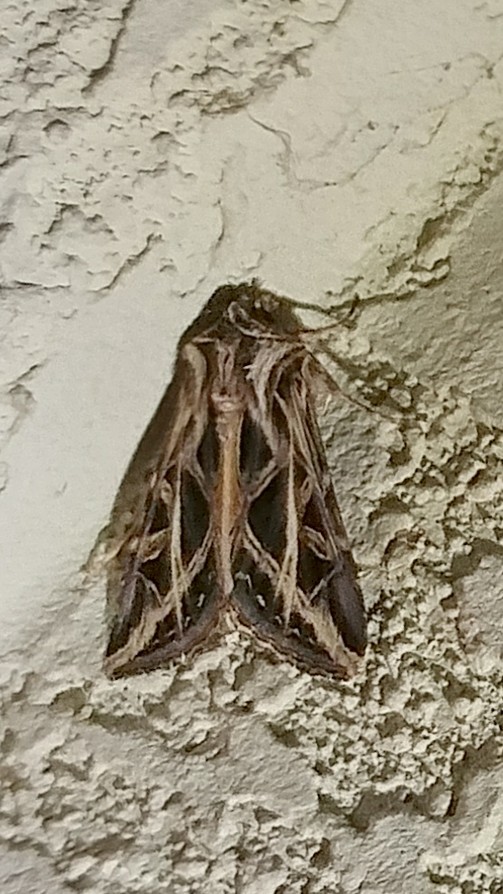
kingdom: Animalia
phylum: Arthropoda
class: Insecta
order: Lepidoptera
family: Noctuidae
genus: Dargida
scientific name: Dargida procinctus
